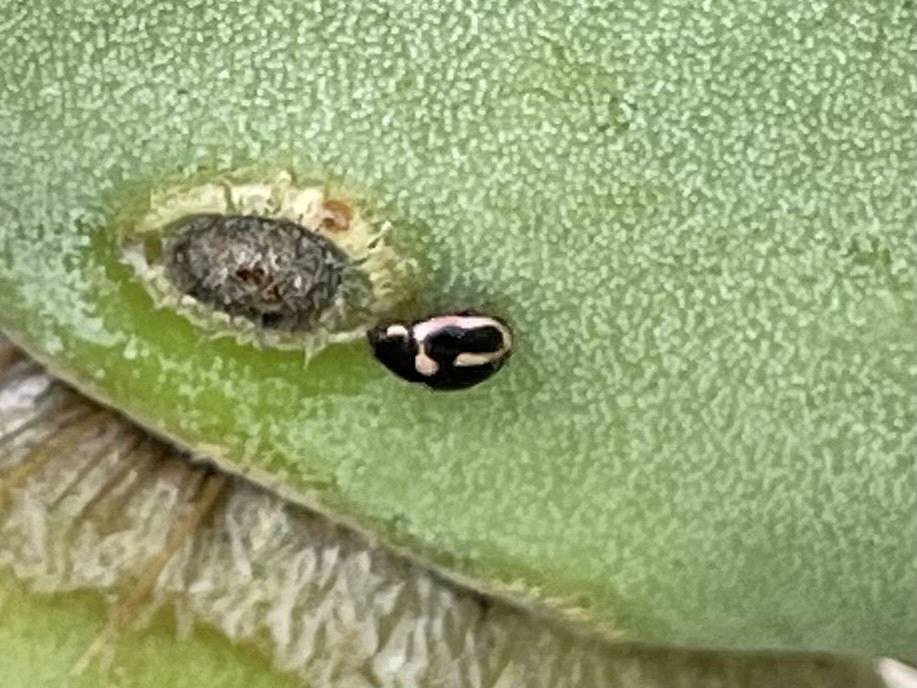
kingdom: Animalia
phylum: Arthropoda
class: Insecta
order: Coleoptera
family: Coccinellidae
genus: Hyperaspis
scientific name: Hyperaspis trifurcata
